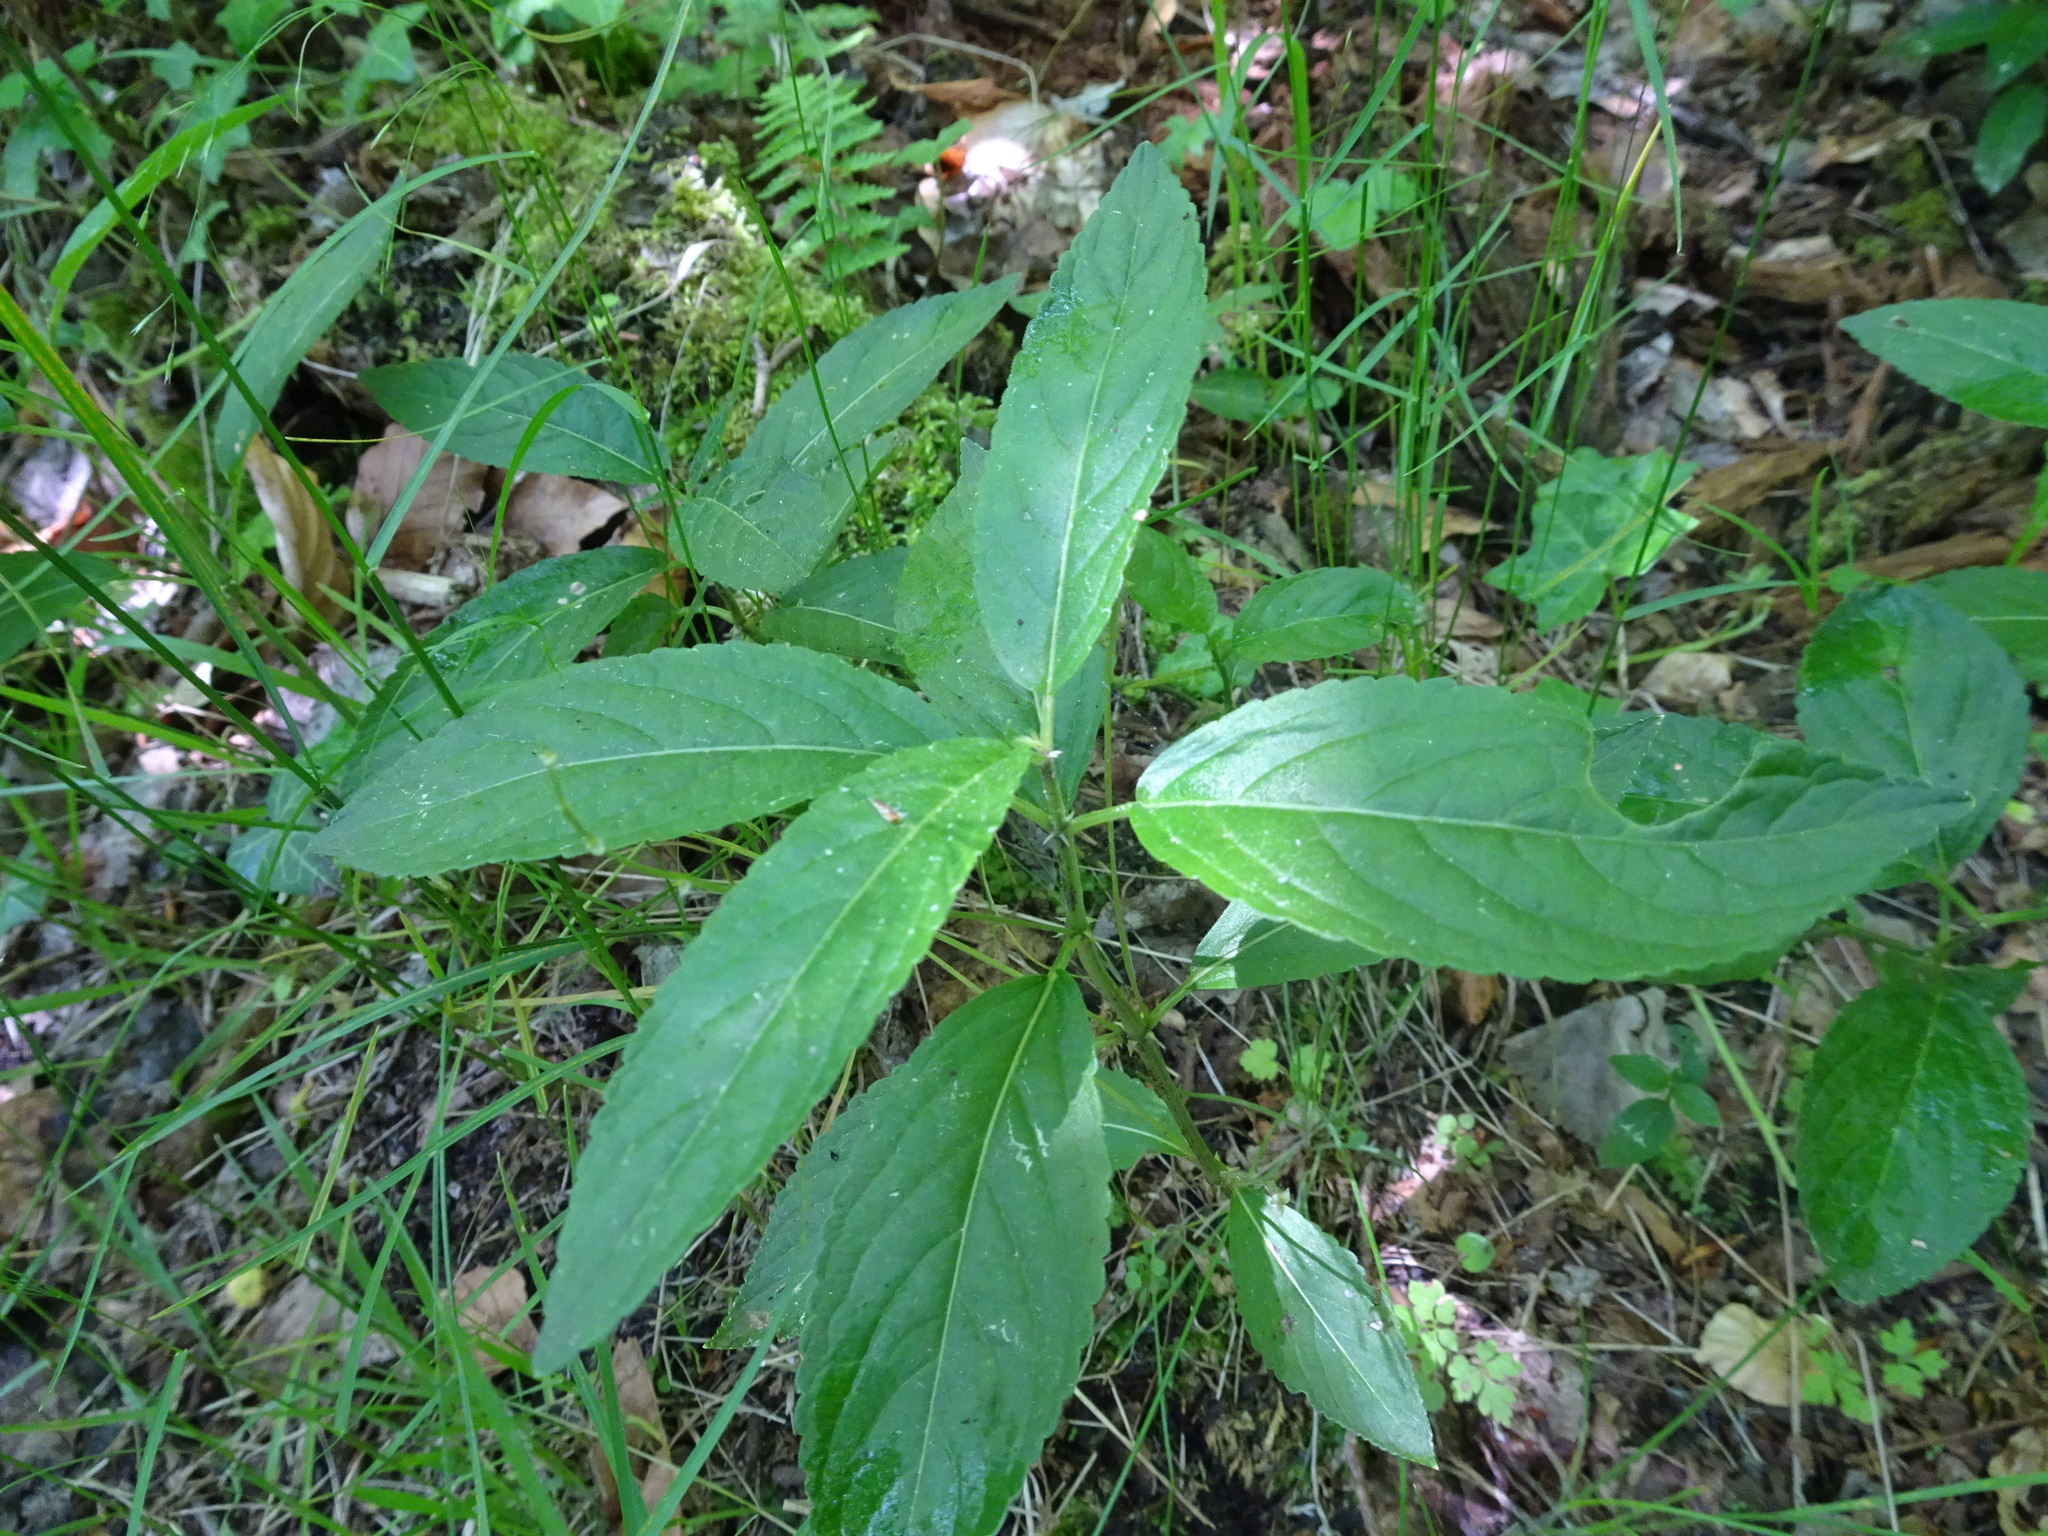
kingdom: Plantae
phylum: Tracheophyta
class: Magnoliopsida
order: Malpighiales
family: Euphorbiaceae
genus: Mercurialis
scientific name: Mercurialis perennis
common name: Dog mercury
